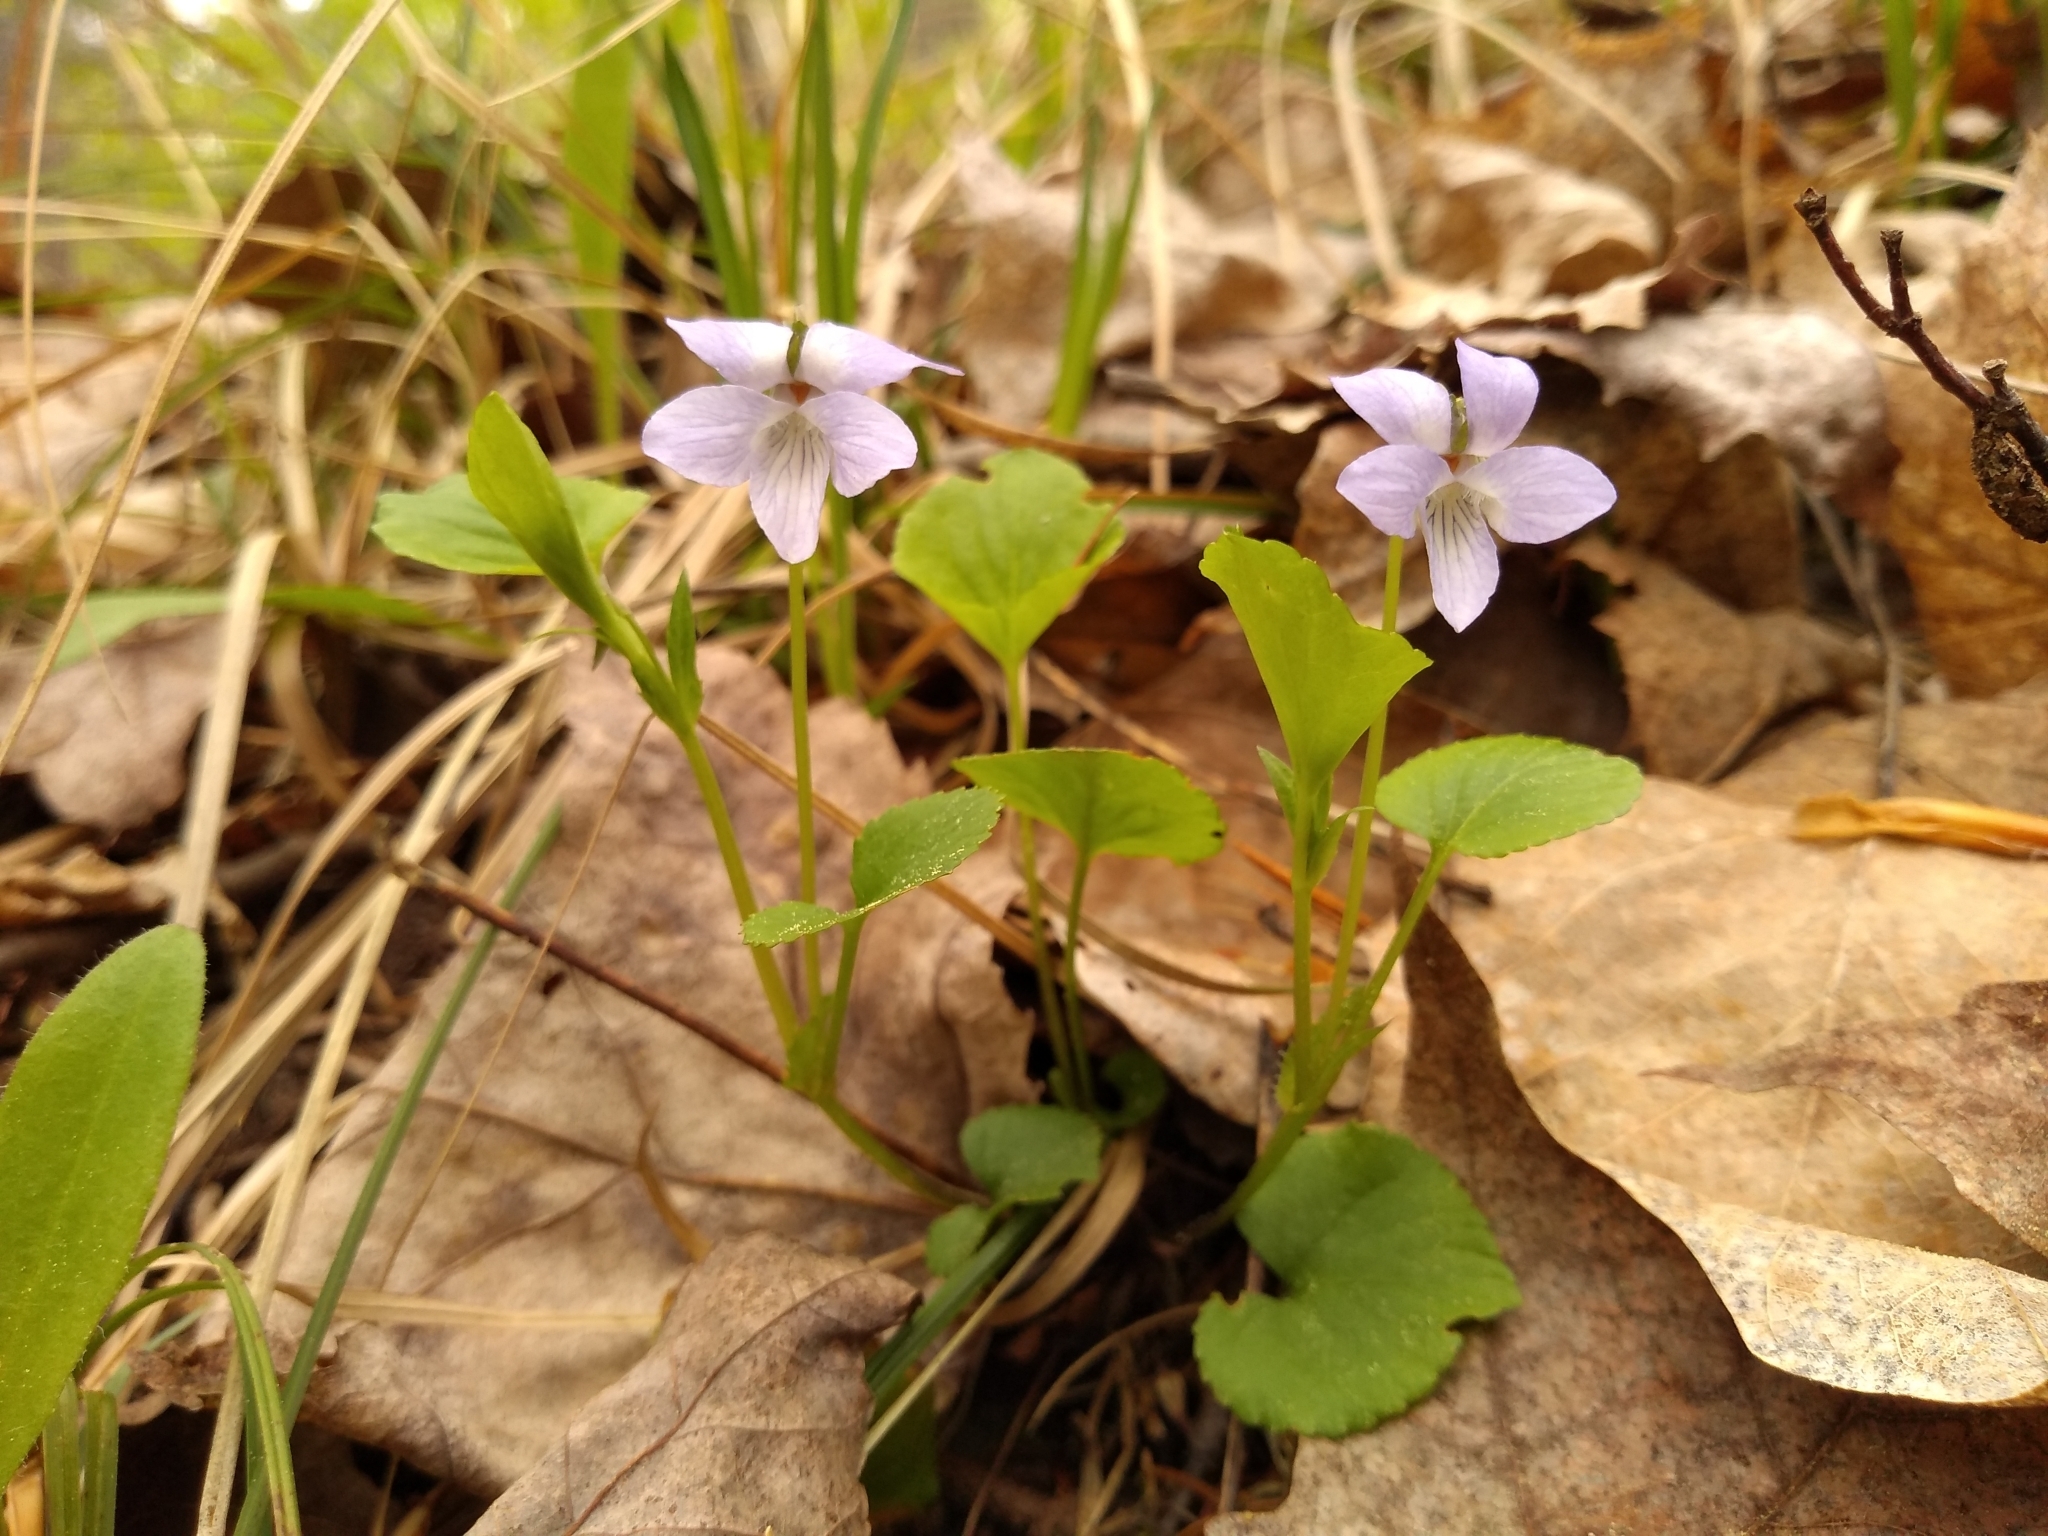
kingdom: Plantae
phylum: Tracheophyta
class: Magnoliopsida
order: Malpighiales
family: Violaceae
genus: Viola
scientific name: Viola labradorica
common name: Labrador violet
